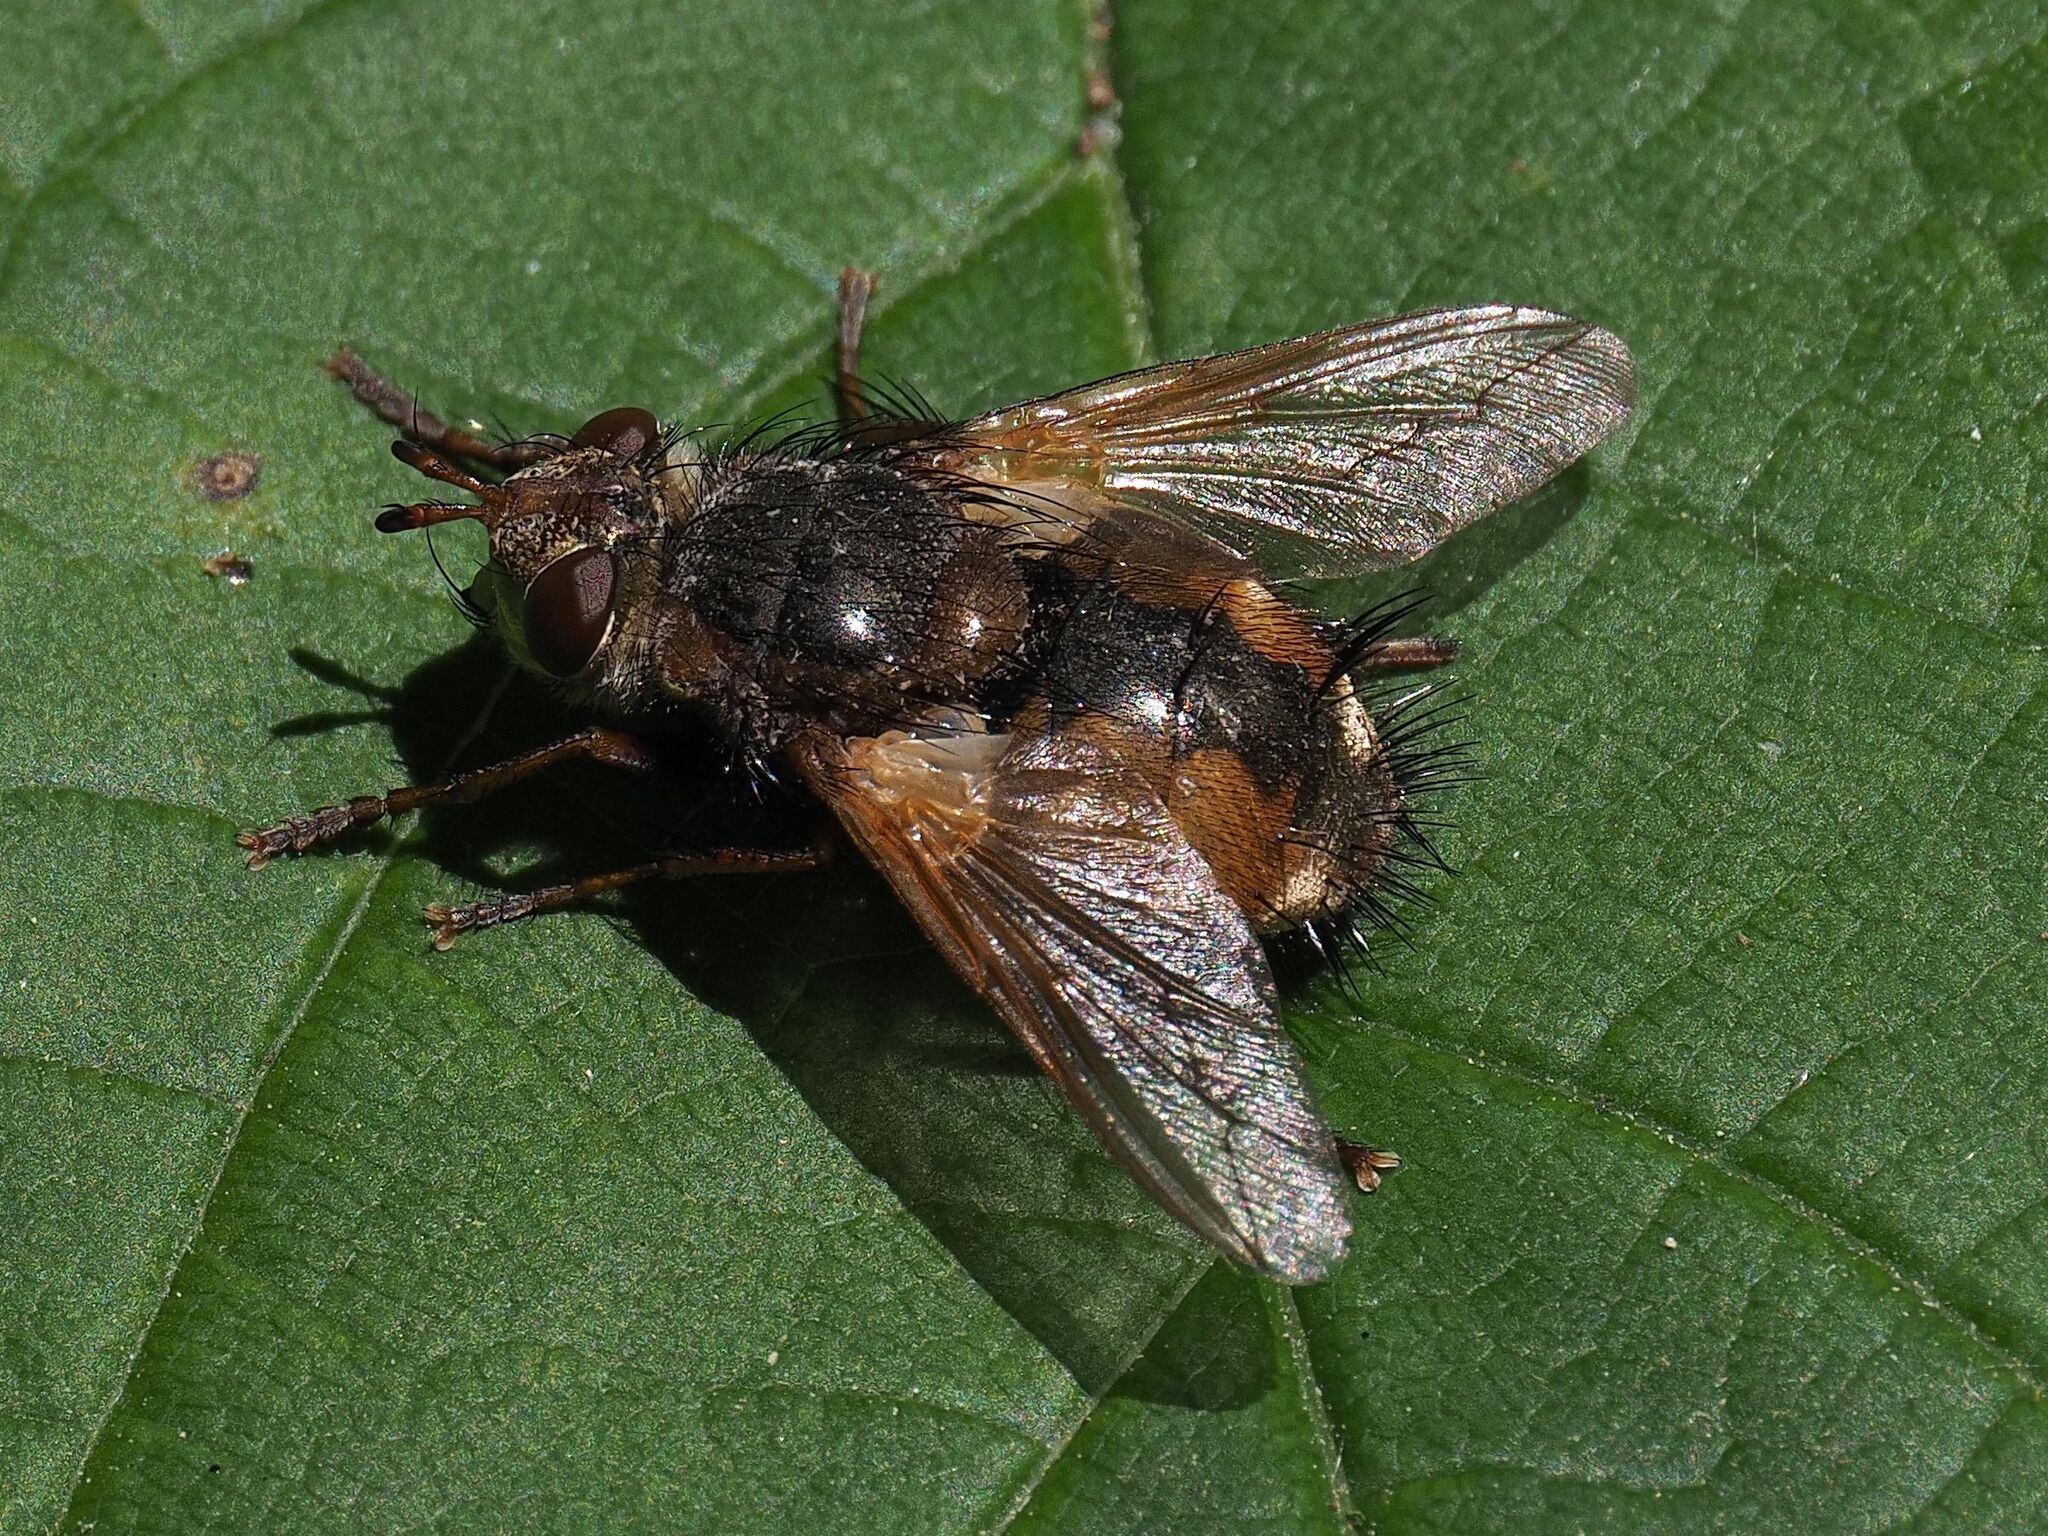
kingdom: Animalia
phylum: Arthropoda
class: Insecta
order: Diptera
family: Tachinidae
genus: Tachina
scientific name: Tachina fera
